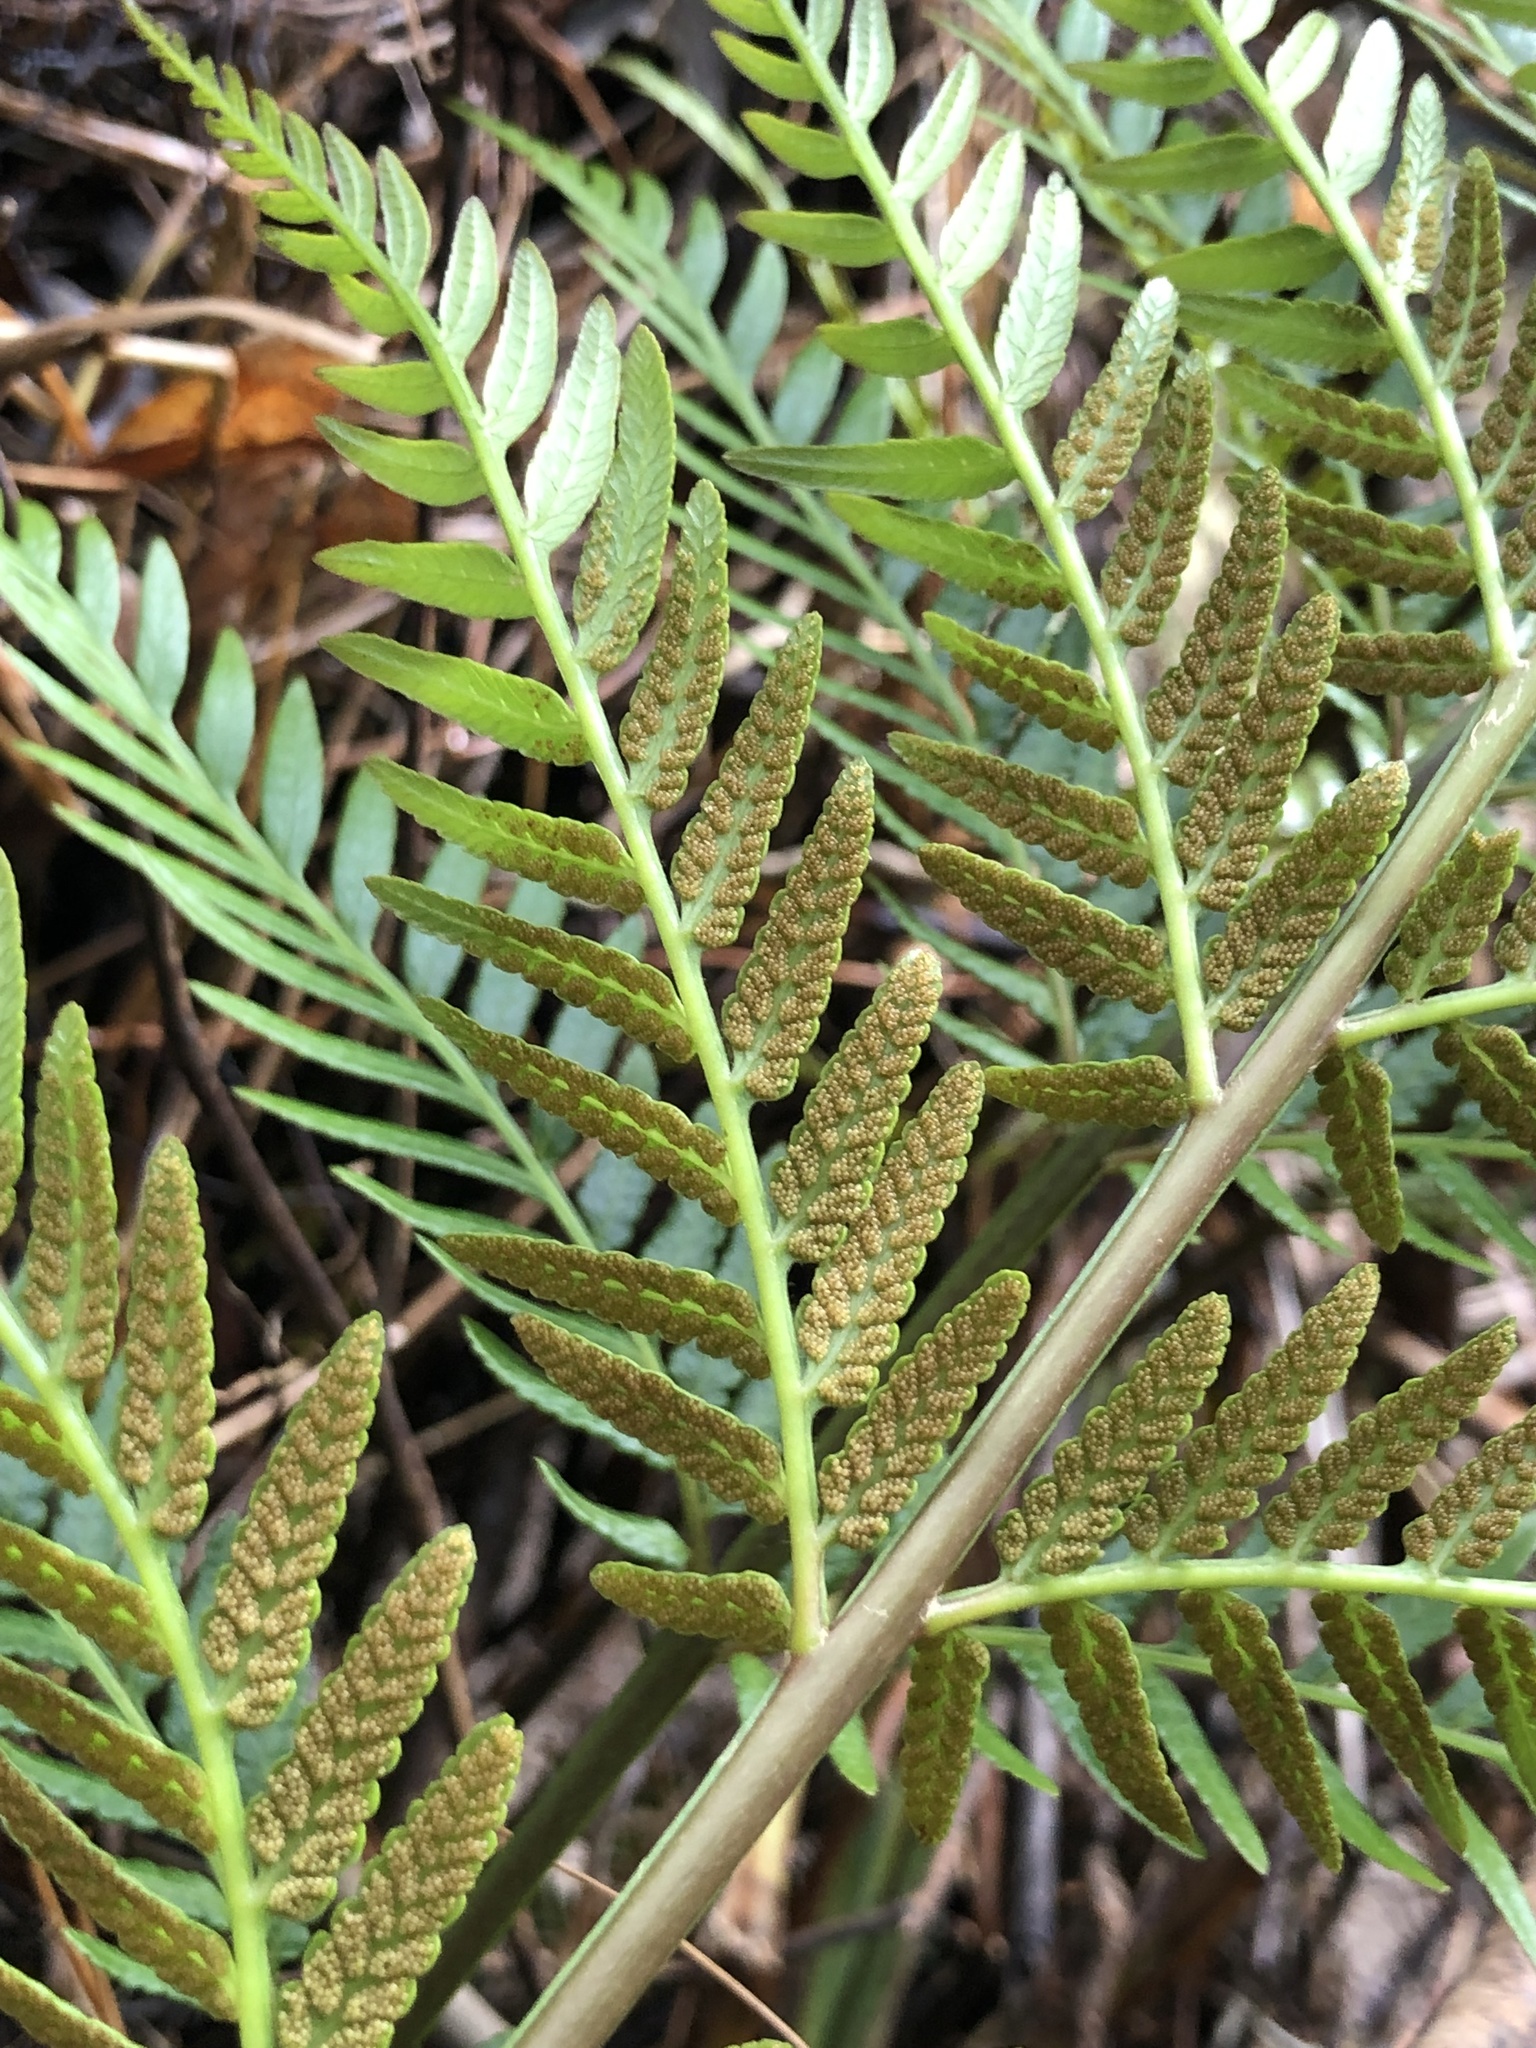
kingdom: Plantae
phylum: Tracheophyta
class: Polypodiopsida
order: Osmundales
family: Osmundaceae
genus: Todea
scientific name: Todea barbara
